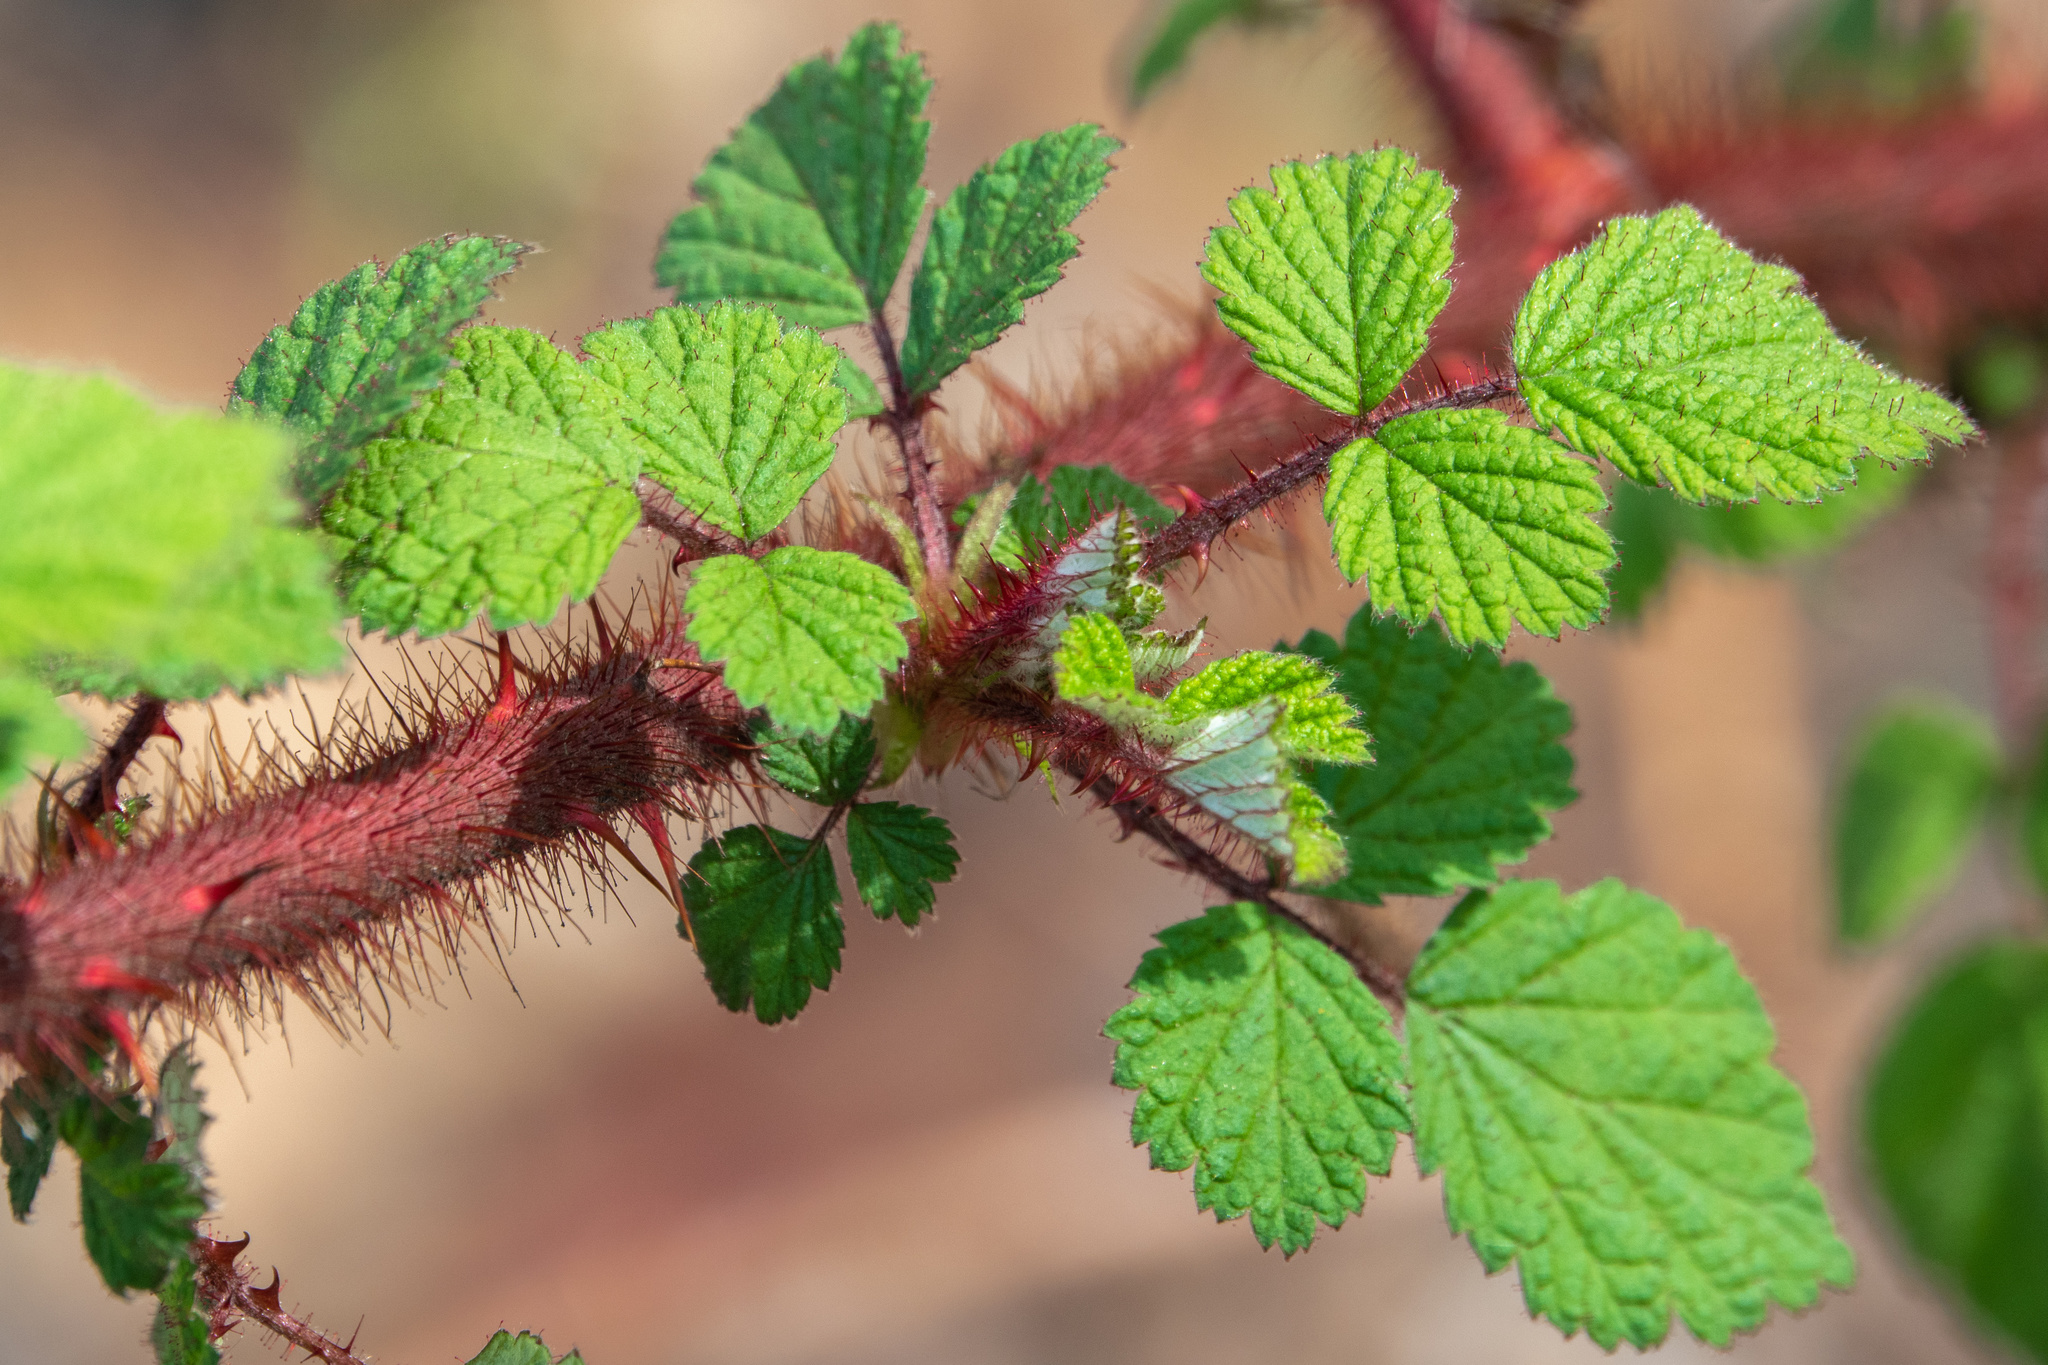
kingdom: Plantae
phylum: Tracheophyta
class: Magnoliopsida
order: Rosales
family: Rosaceae
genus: Rubus
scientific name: Rubus phoenicolasius
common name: Japanese wineberry
